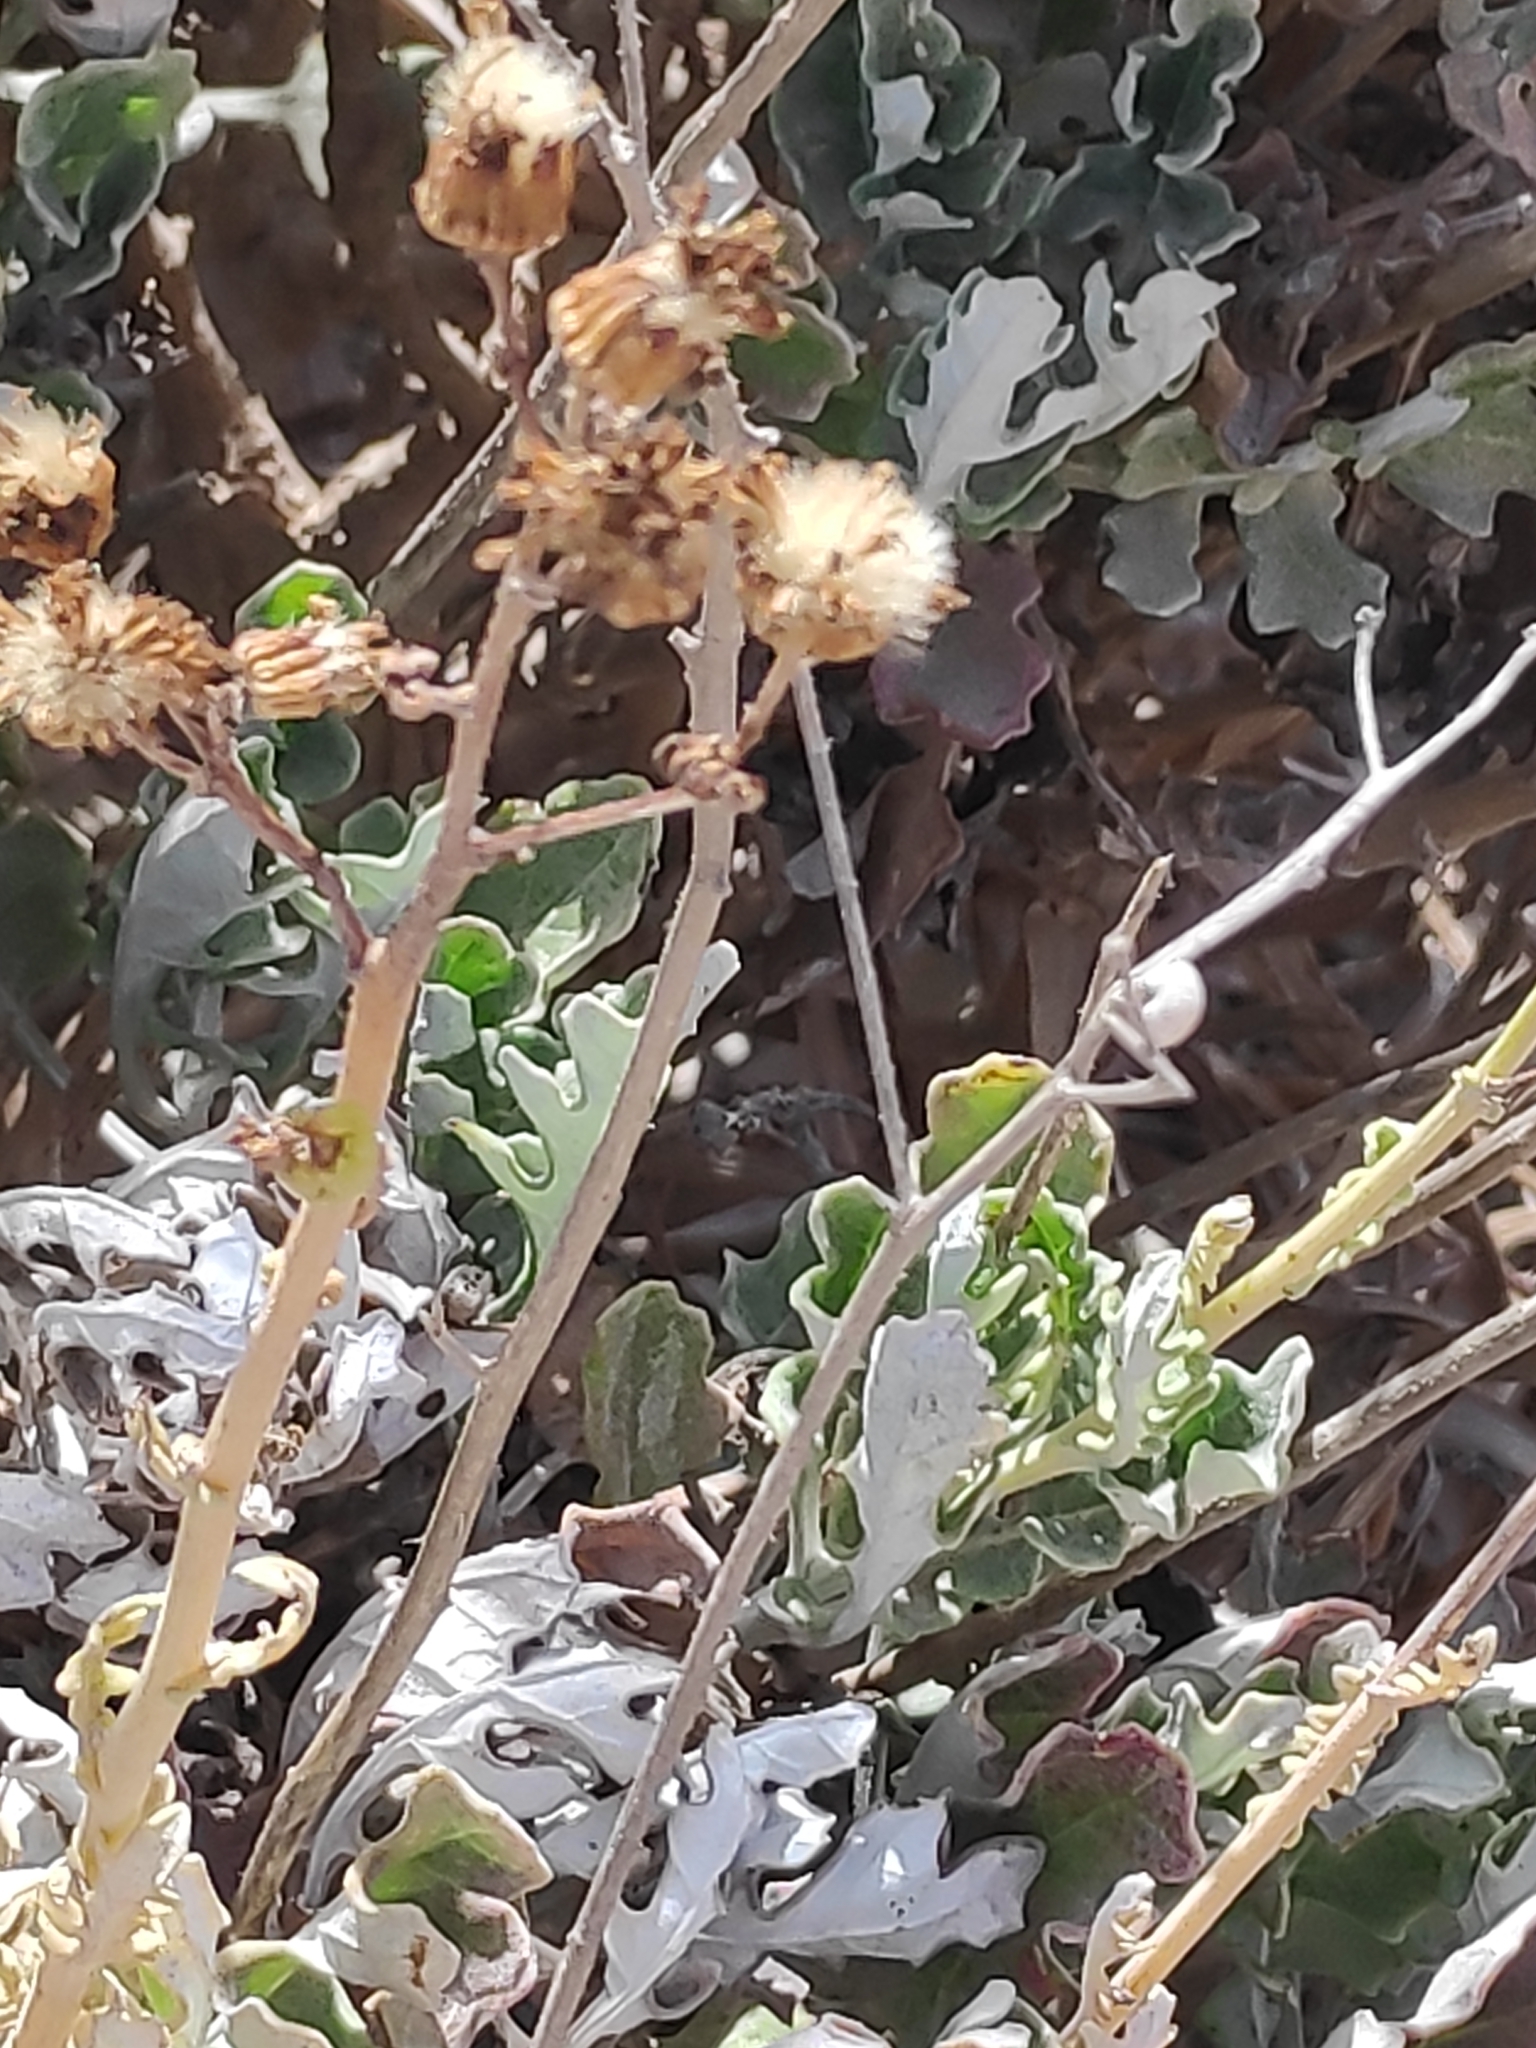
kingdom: Plantae
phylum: Tracheophyta
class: Magnoliopsida
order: Asterales
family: Asteraceae
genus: Jacobaea
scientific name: Jacobaea maritima
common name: Silver ragwort
